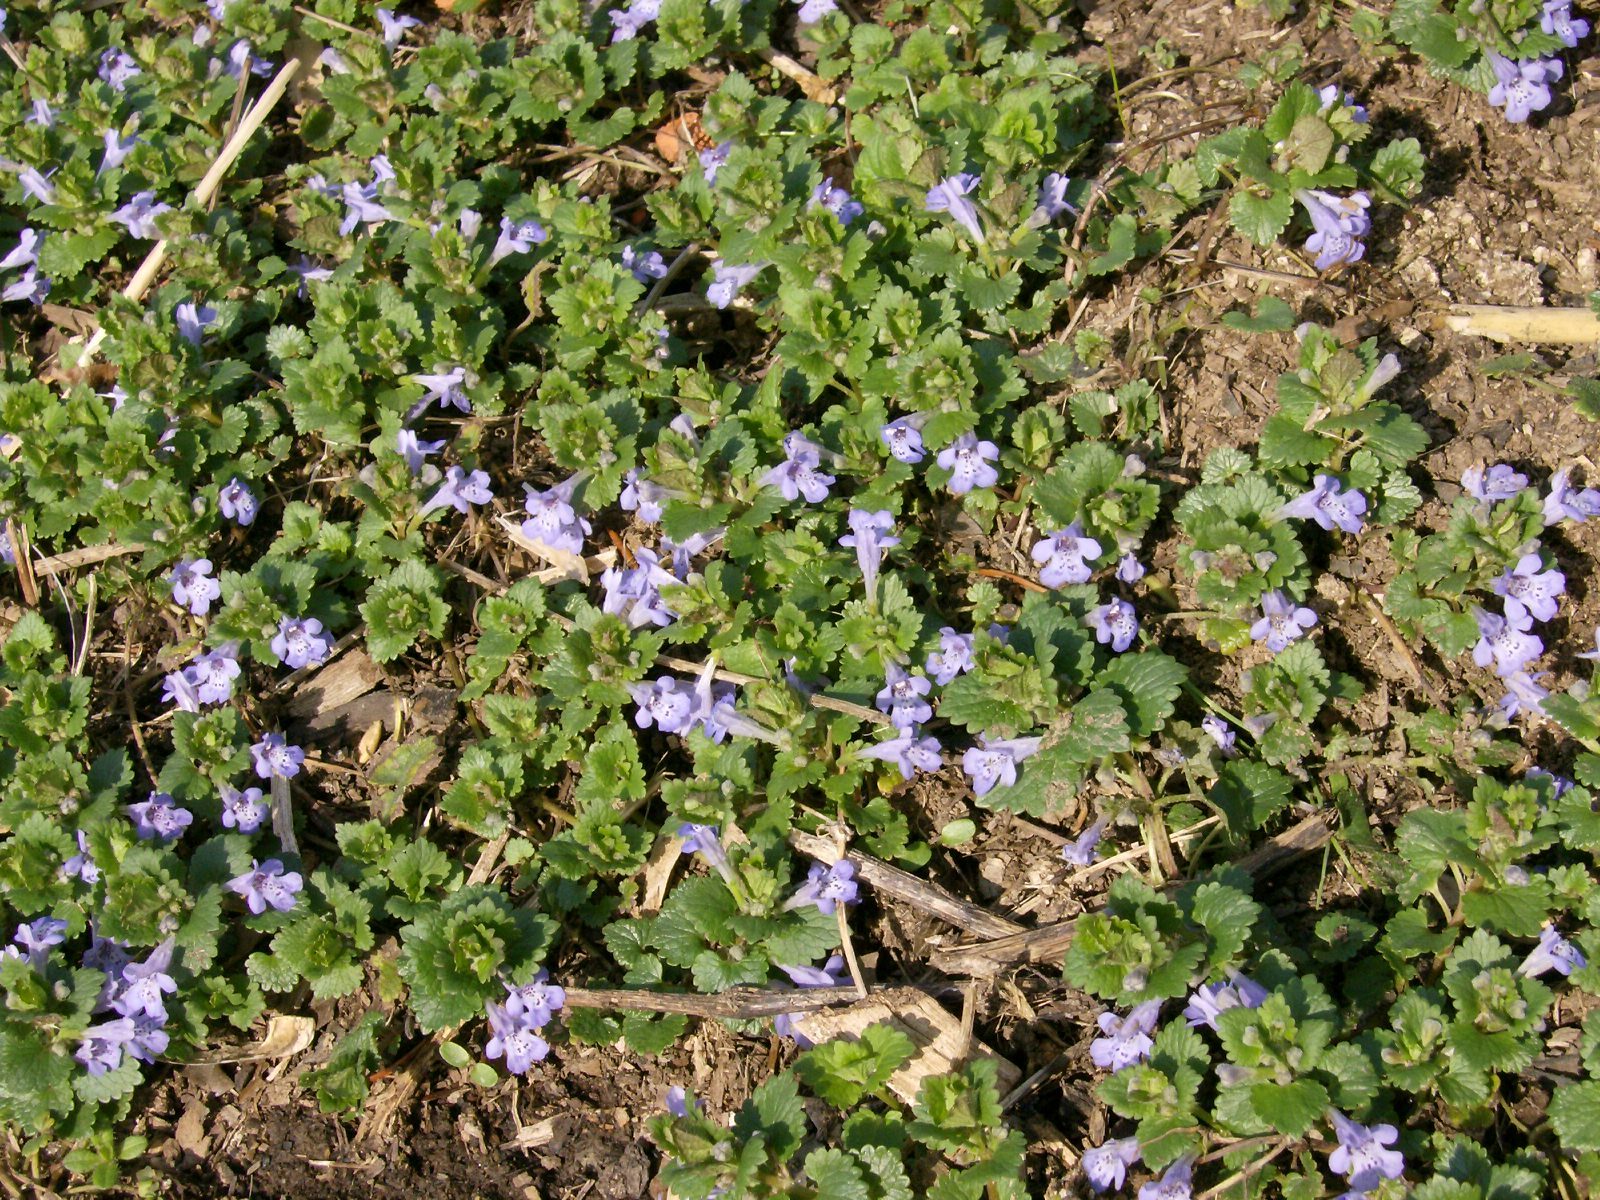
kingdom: Plantae
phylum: Tracheophyta
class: Magnoliopsida
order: Lamiales
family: Lamiaceae
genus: Glechoma
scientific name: Glechoma hederacea
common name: Ground ivy
